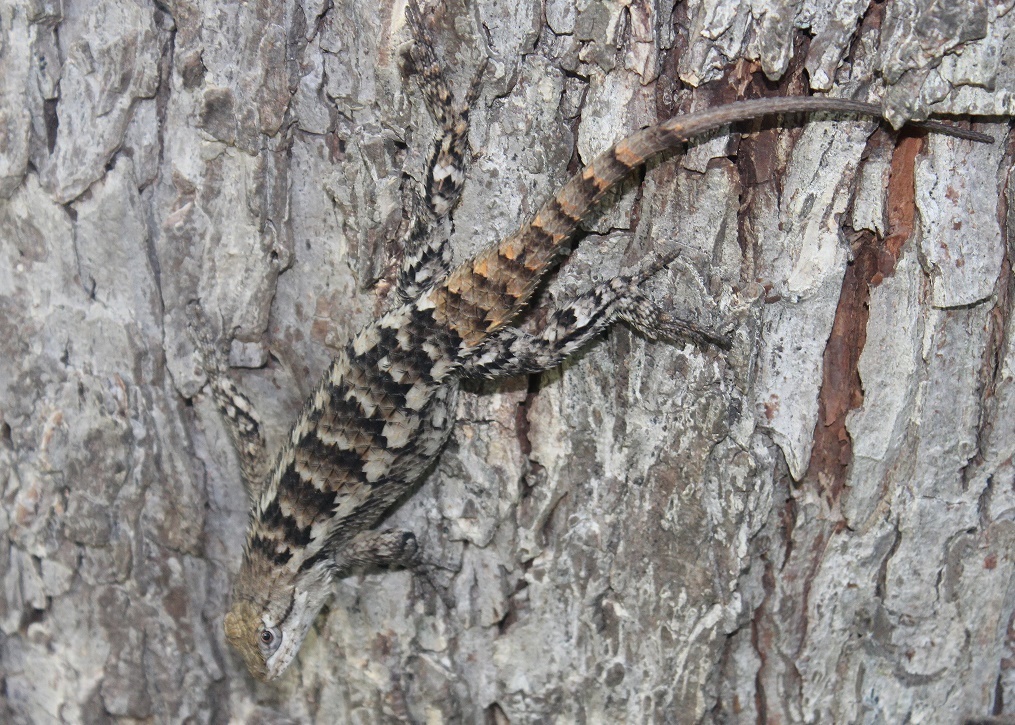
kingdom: Animalia
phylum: Chordata
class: Squamata
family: Phrynosomatidae
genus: Sceloporus
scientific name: Sceloporus olivaceus
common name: Texas spiny lizard
